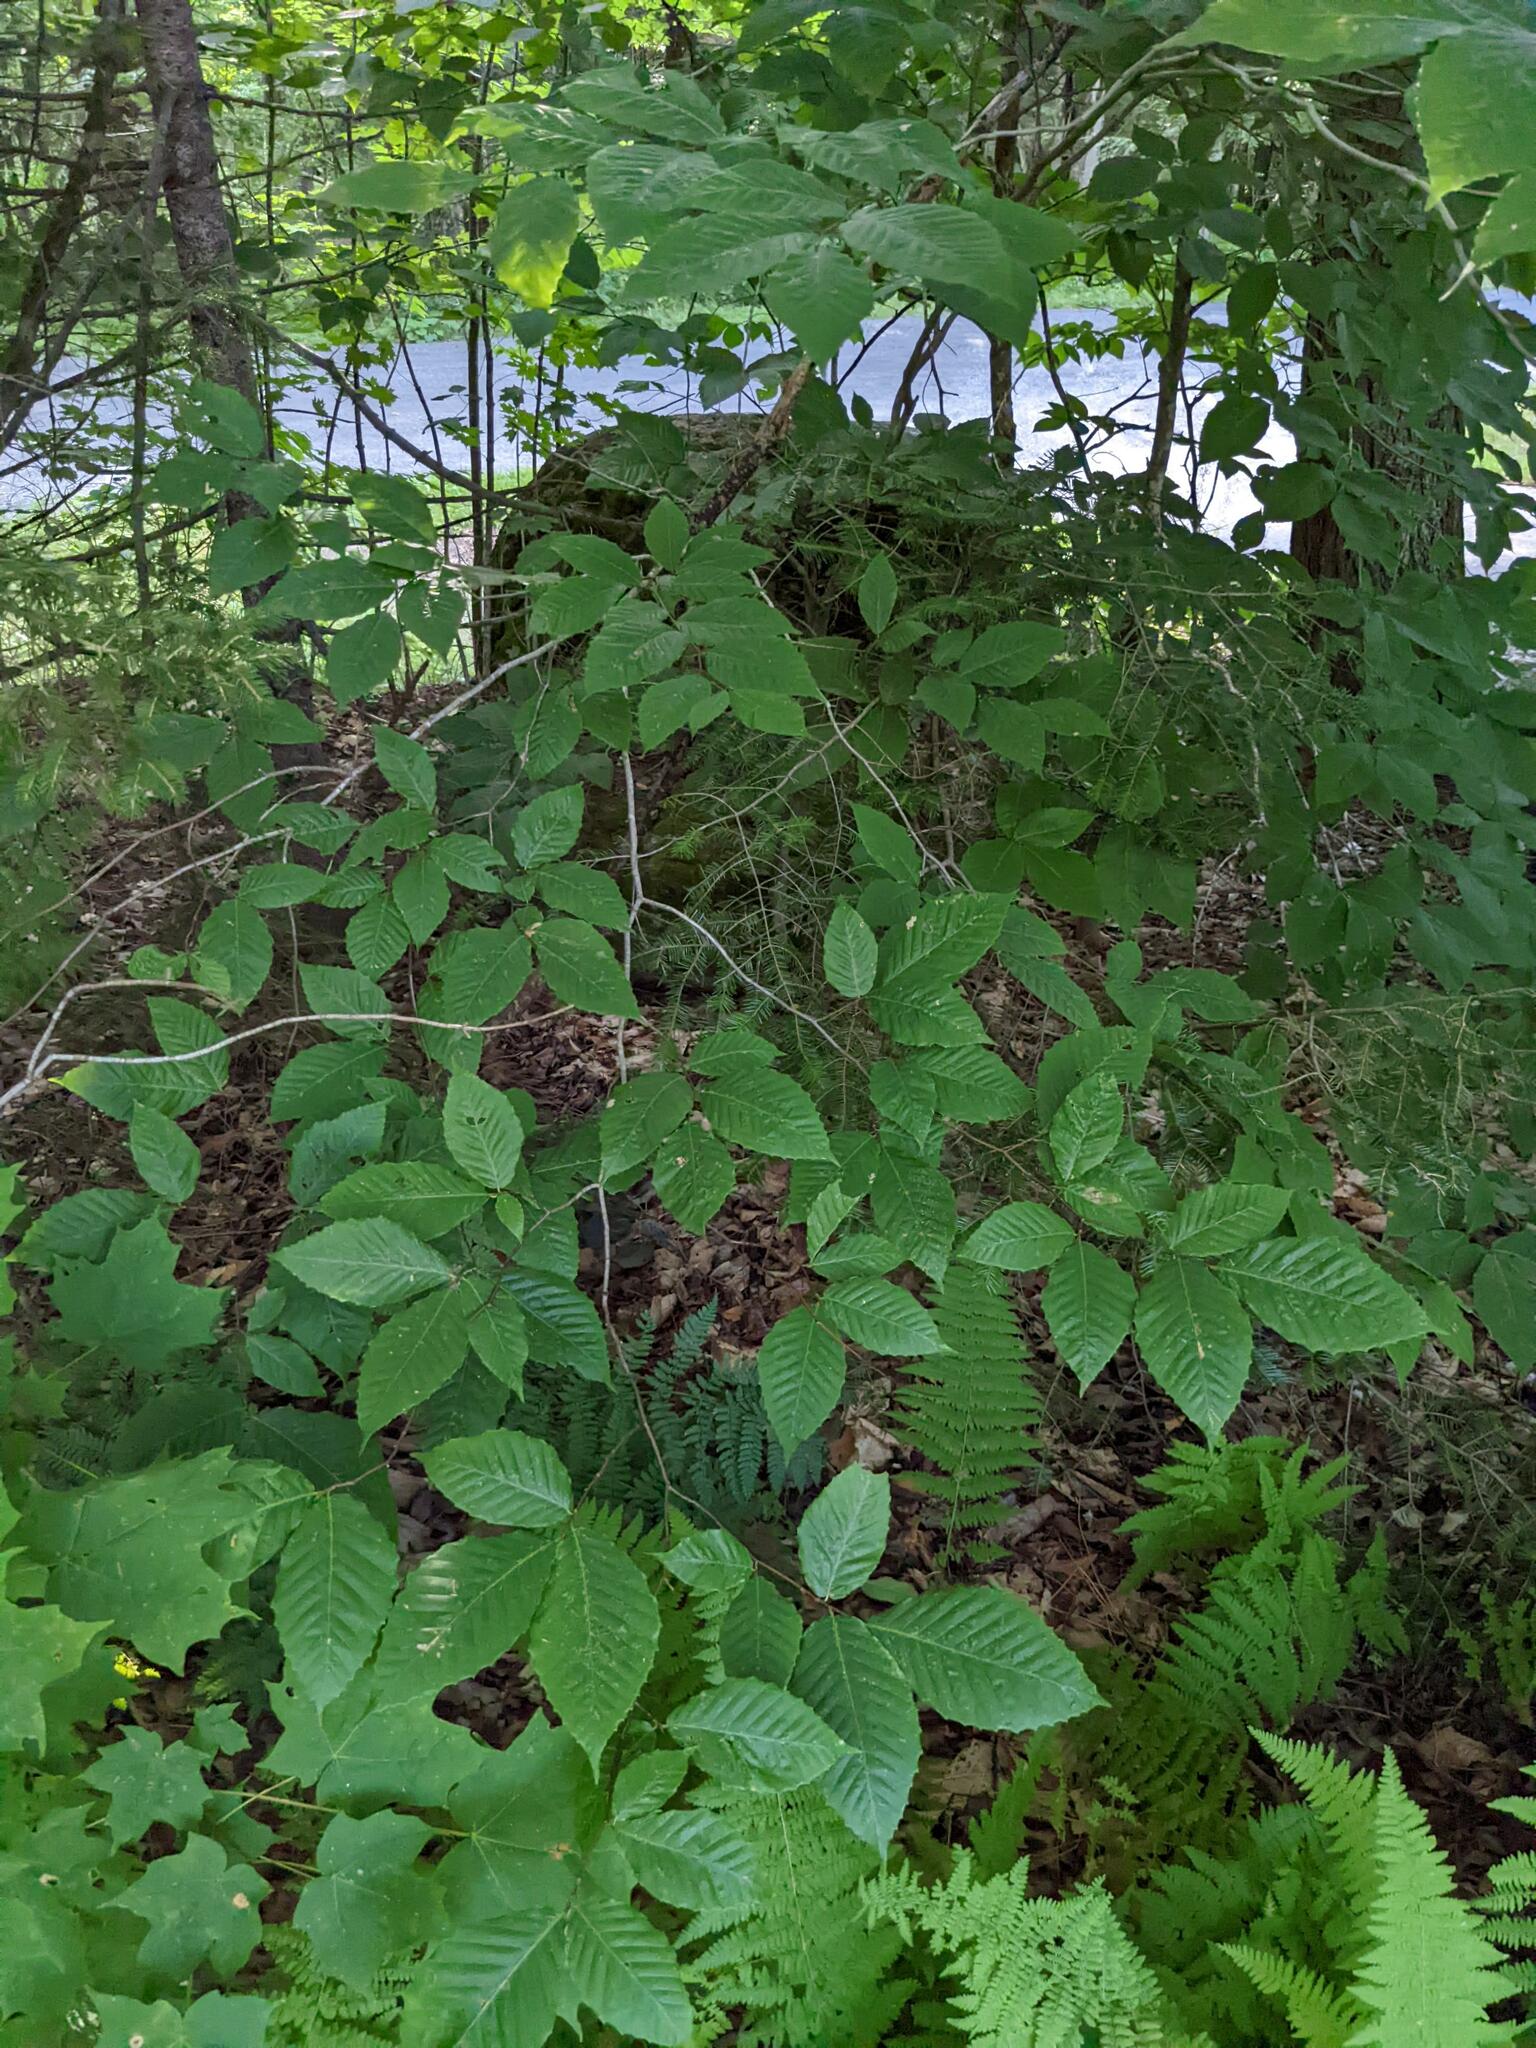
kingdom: Plantae
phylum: Tracheophyta
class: Magnoliopsida
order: Fagales
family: Fagaceae
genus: Fagus
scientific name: Fagus grandifolia
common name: American beech
